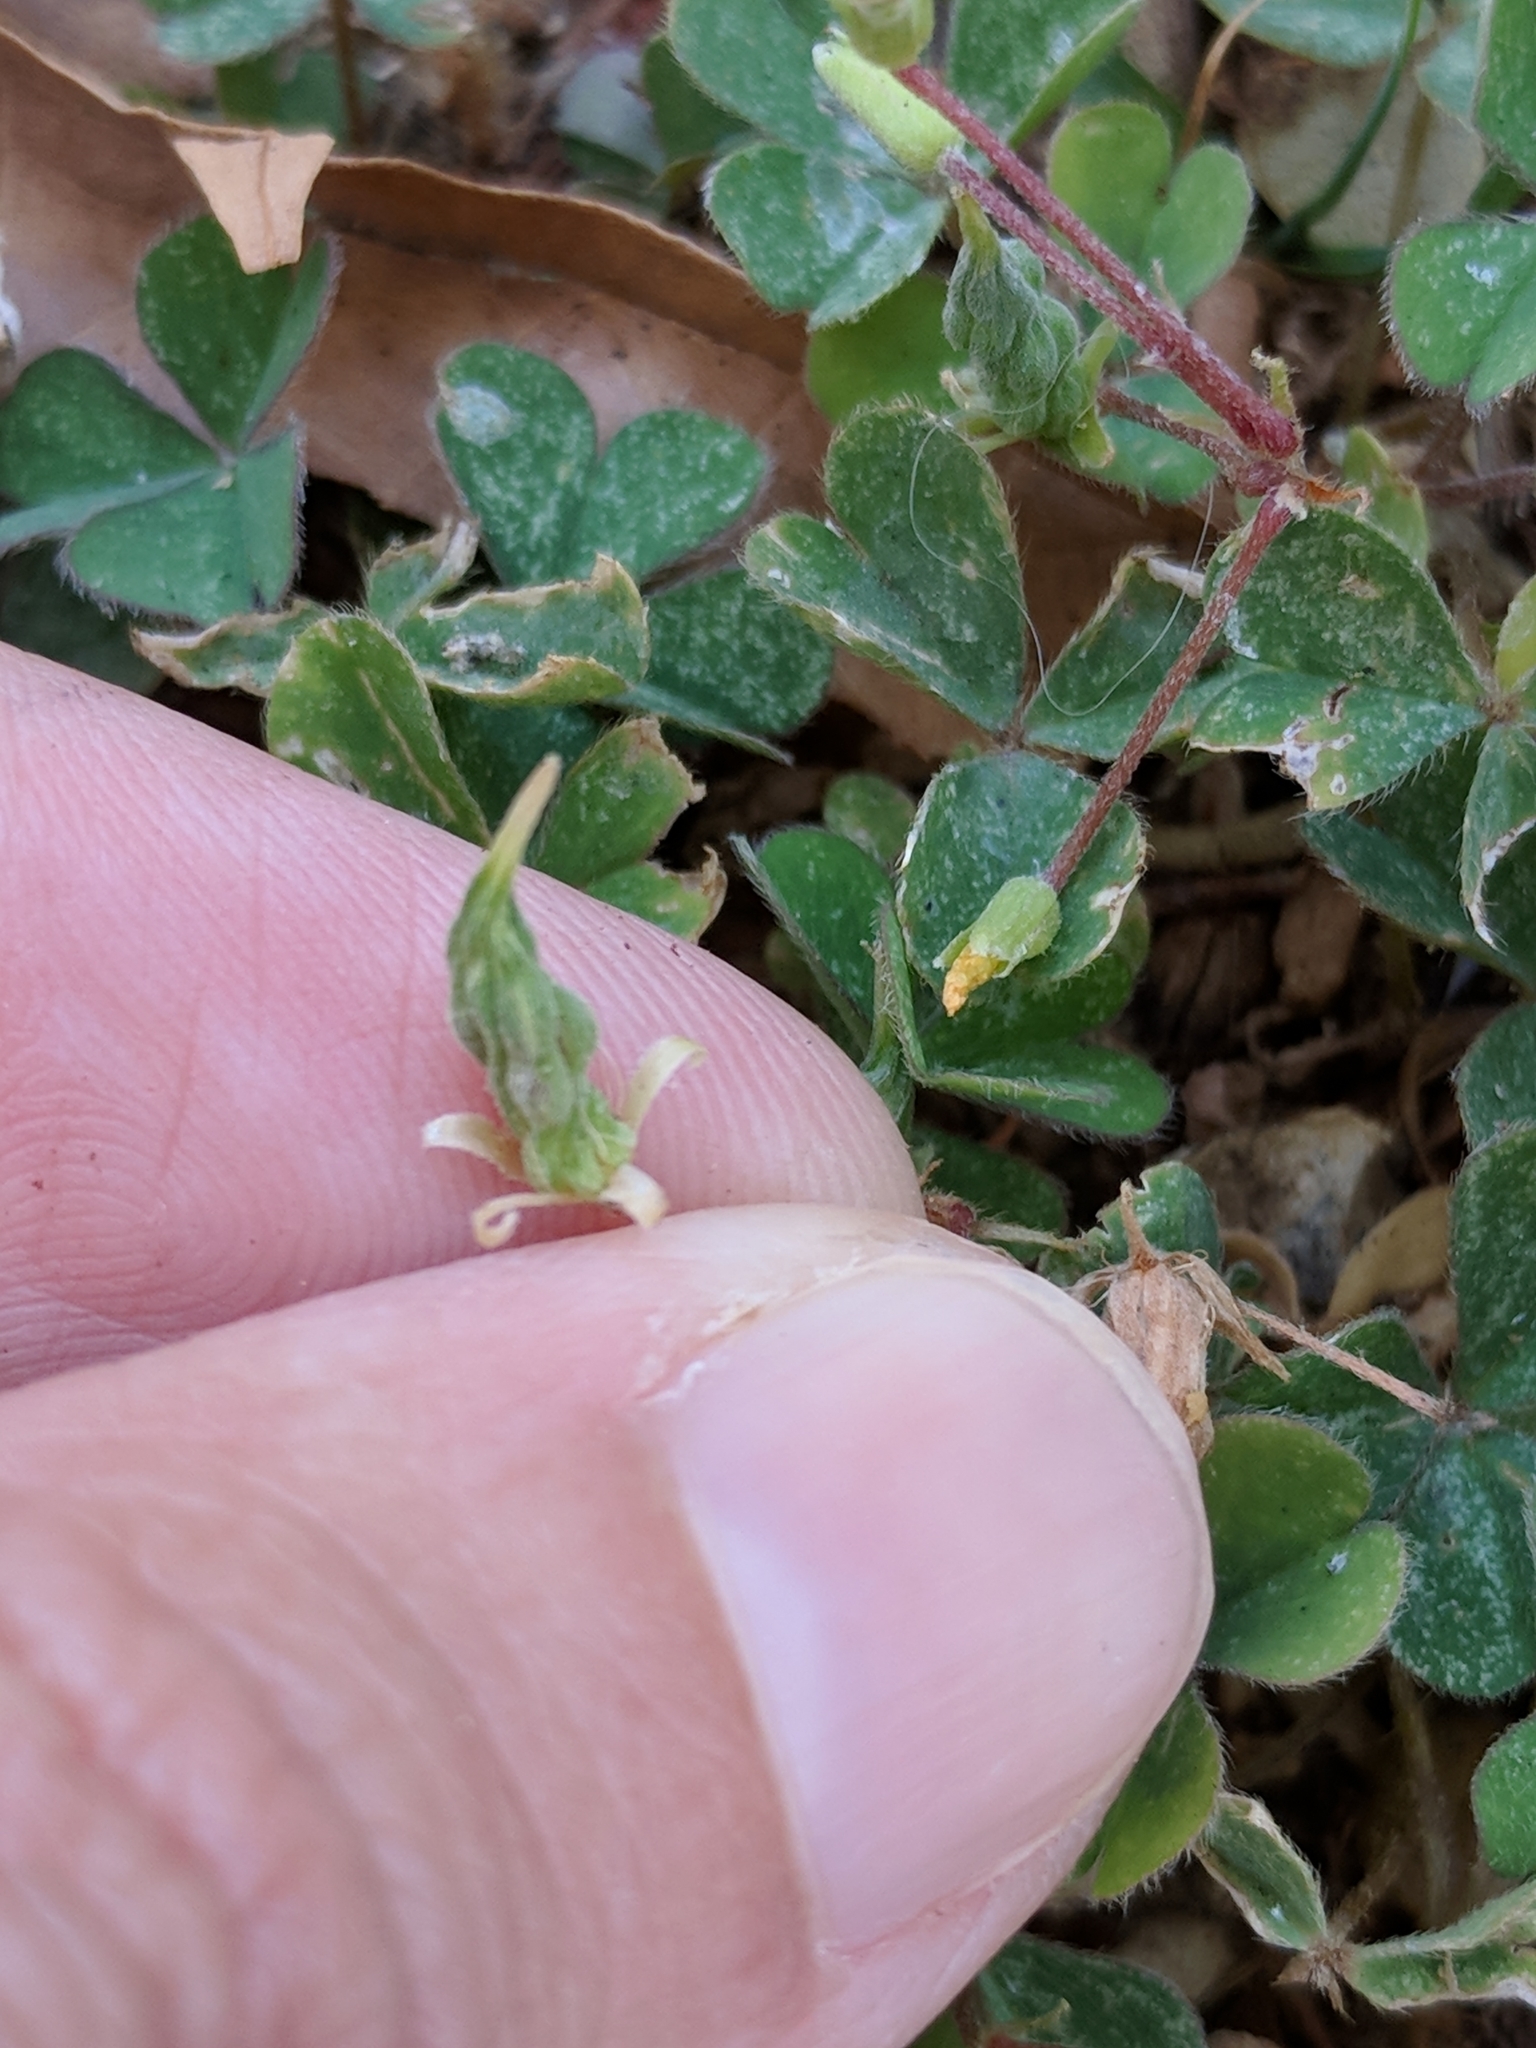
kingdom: Plantae
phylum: Tracheophyta
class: Magnoliopsida
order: Oxalidales
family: Oxalidaceae
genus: Oxalis
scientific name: Oxalis corniculata
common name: Procumbent yellow-sorrel
